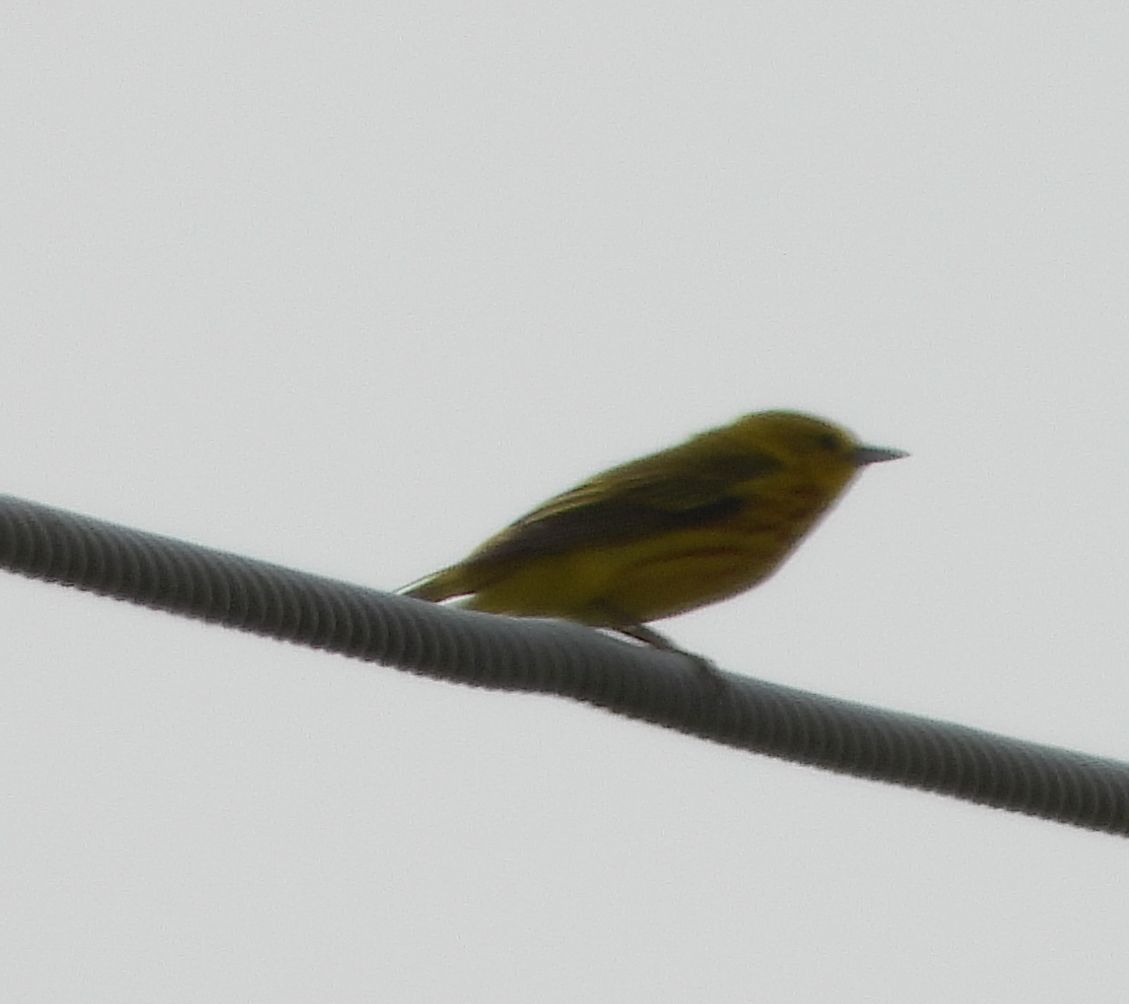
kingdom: Animalia
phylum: Chordata
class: Aves
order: Passeriformes
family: Parulidae
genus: Setophaga
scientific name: Setophaga petechia
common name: Yellow warbler
